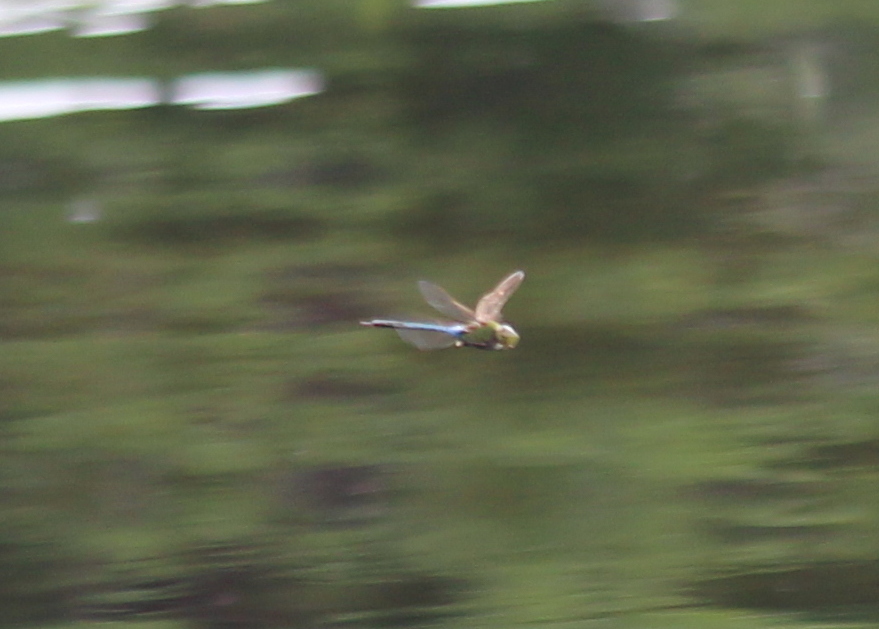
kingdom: Animalia
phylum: Arthropoda
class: Insecta
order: Odonata
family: Aeshnidae
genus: Anax
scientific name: Anax junius
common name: Common green darner
